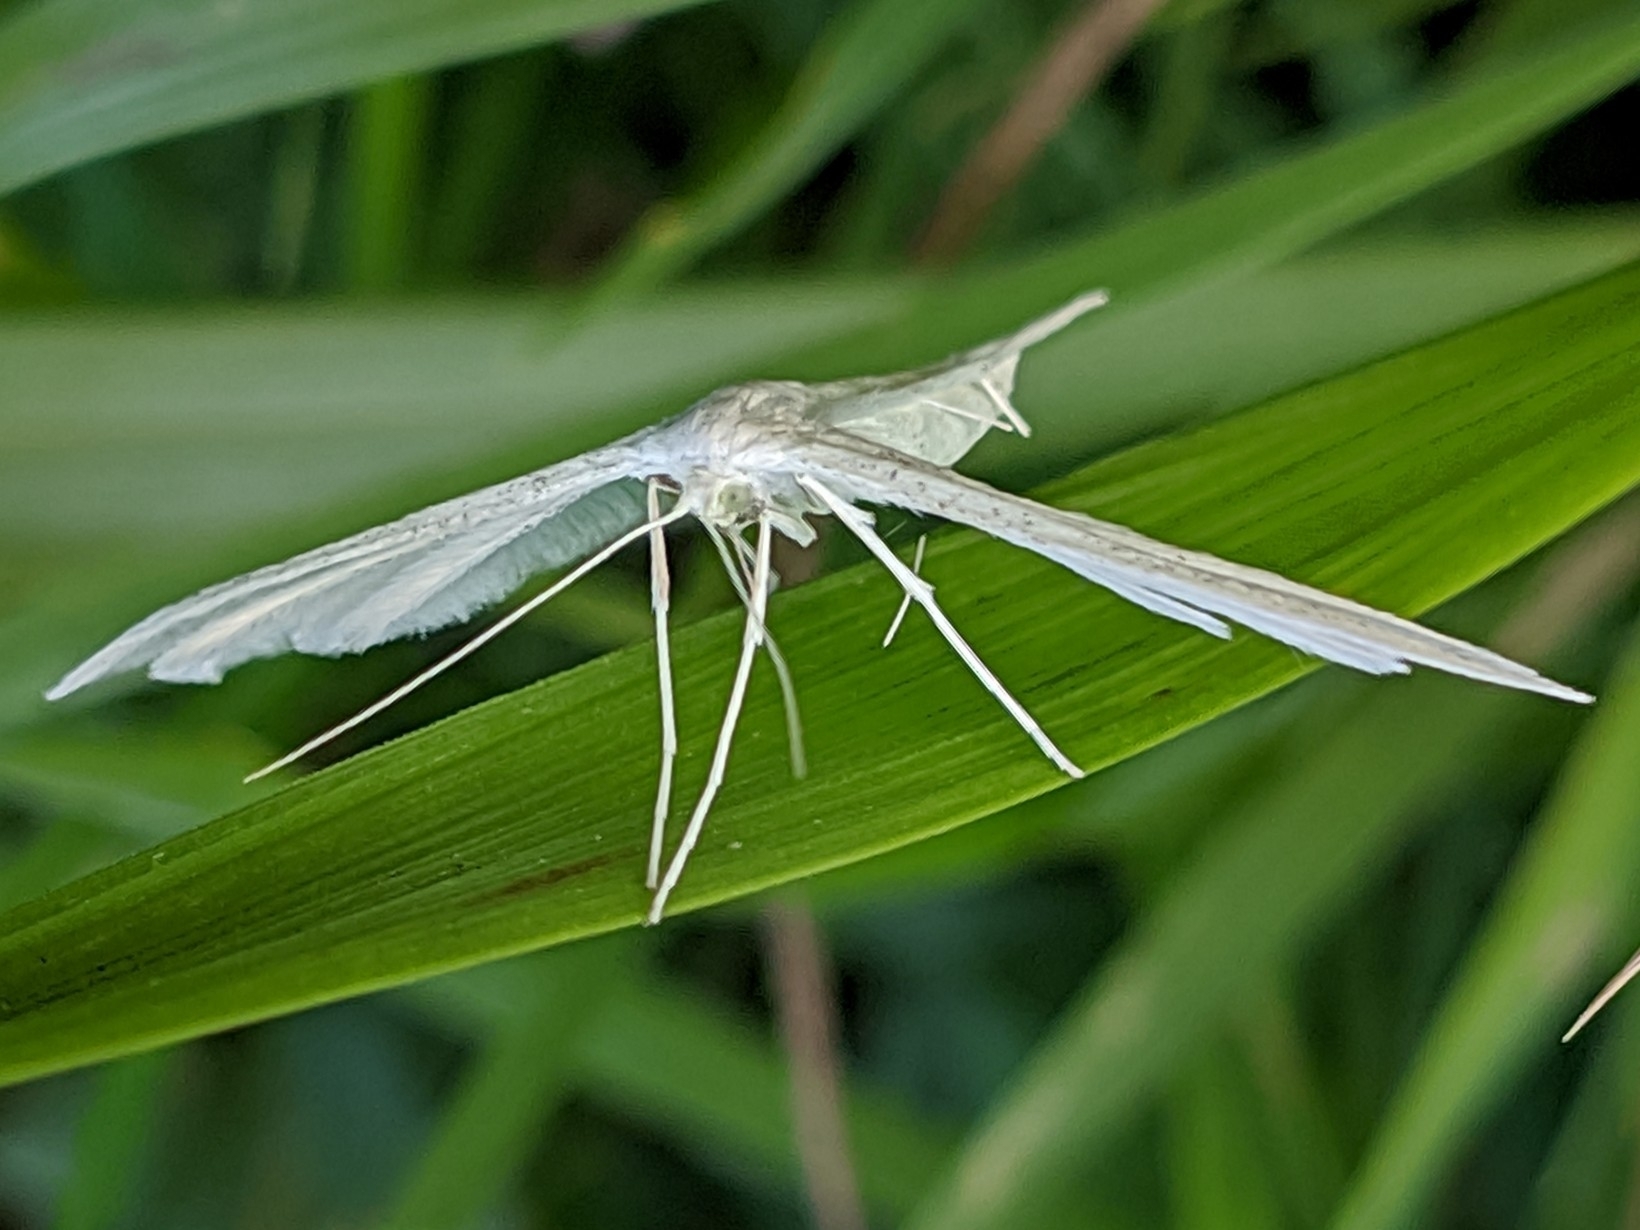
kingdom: Animalia
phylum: Arthropoda
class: Insecta
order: Lepidoptera
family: Pterophoridae
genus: Pterophorus
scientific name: Pterophorus pentadactyla
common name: White plume moth
